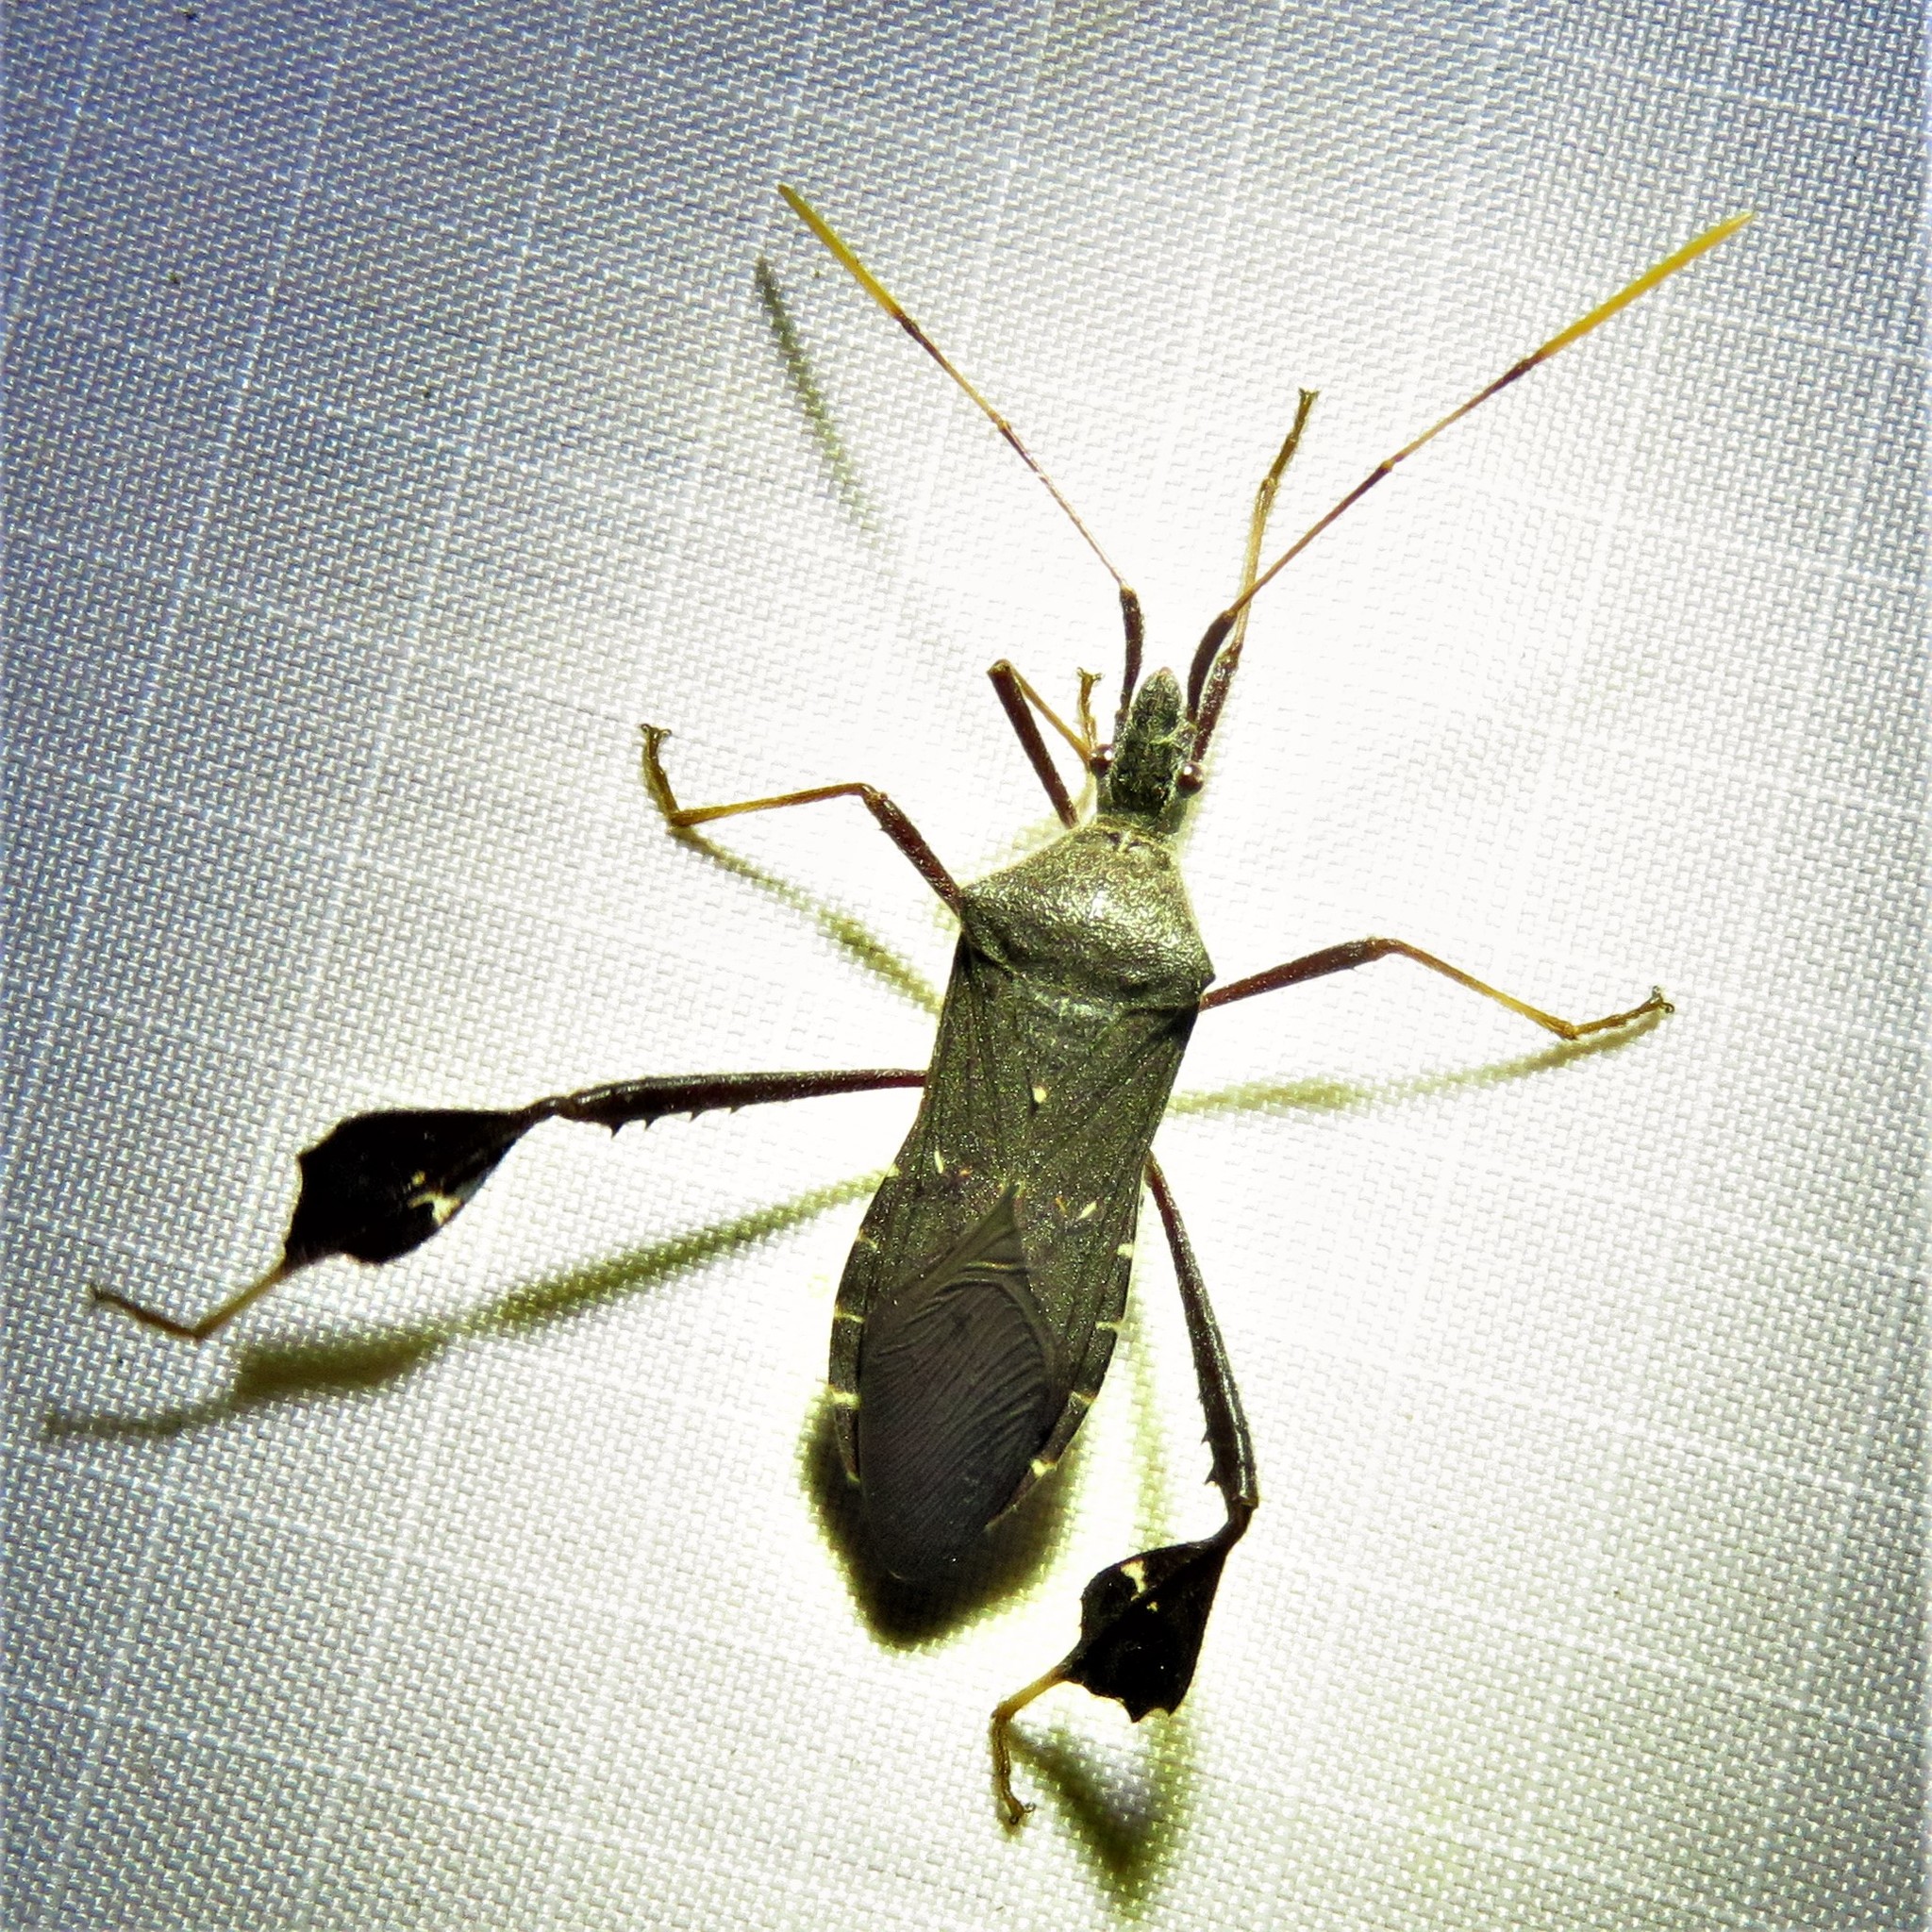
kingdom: Animalia
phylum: Arthropoda
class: Insecta
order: Hemiptera
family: Coreidae
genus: Leptoglossus
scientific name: Leptoglossus oppositus
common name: Northern leaf-footed bug
